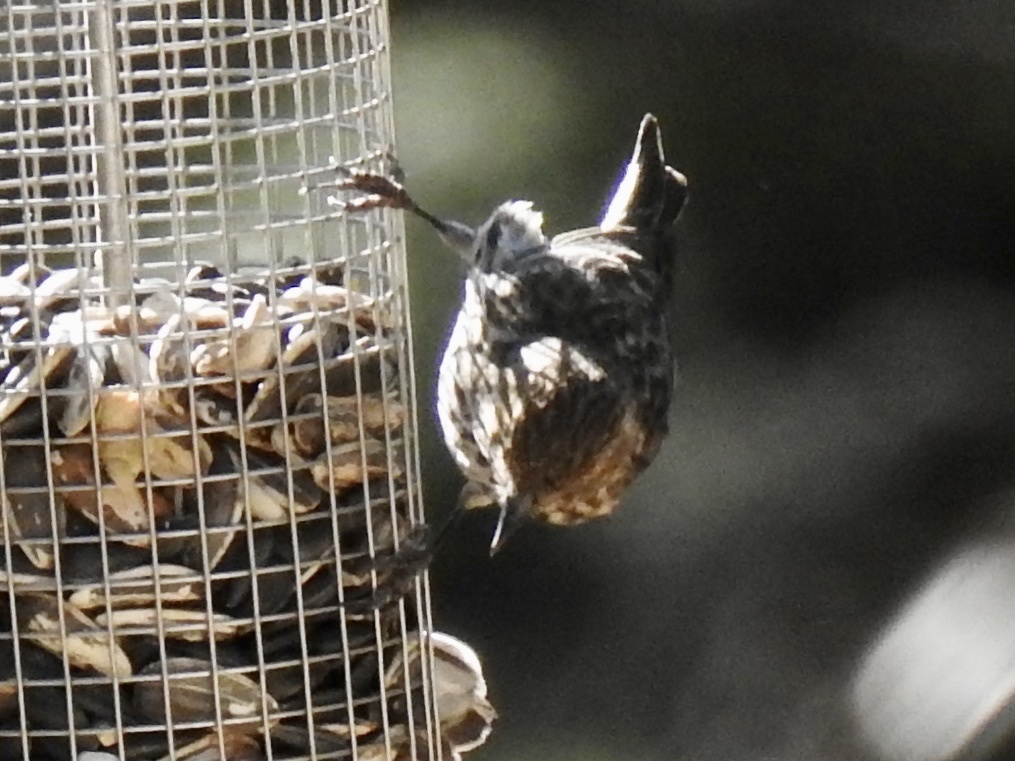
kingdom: Animalia
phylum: Chordata
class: Aves
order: Passeriformes
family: Fringillidae
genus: Spinus
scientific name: Spinus pinus
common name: Pine siskin
